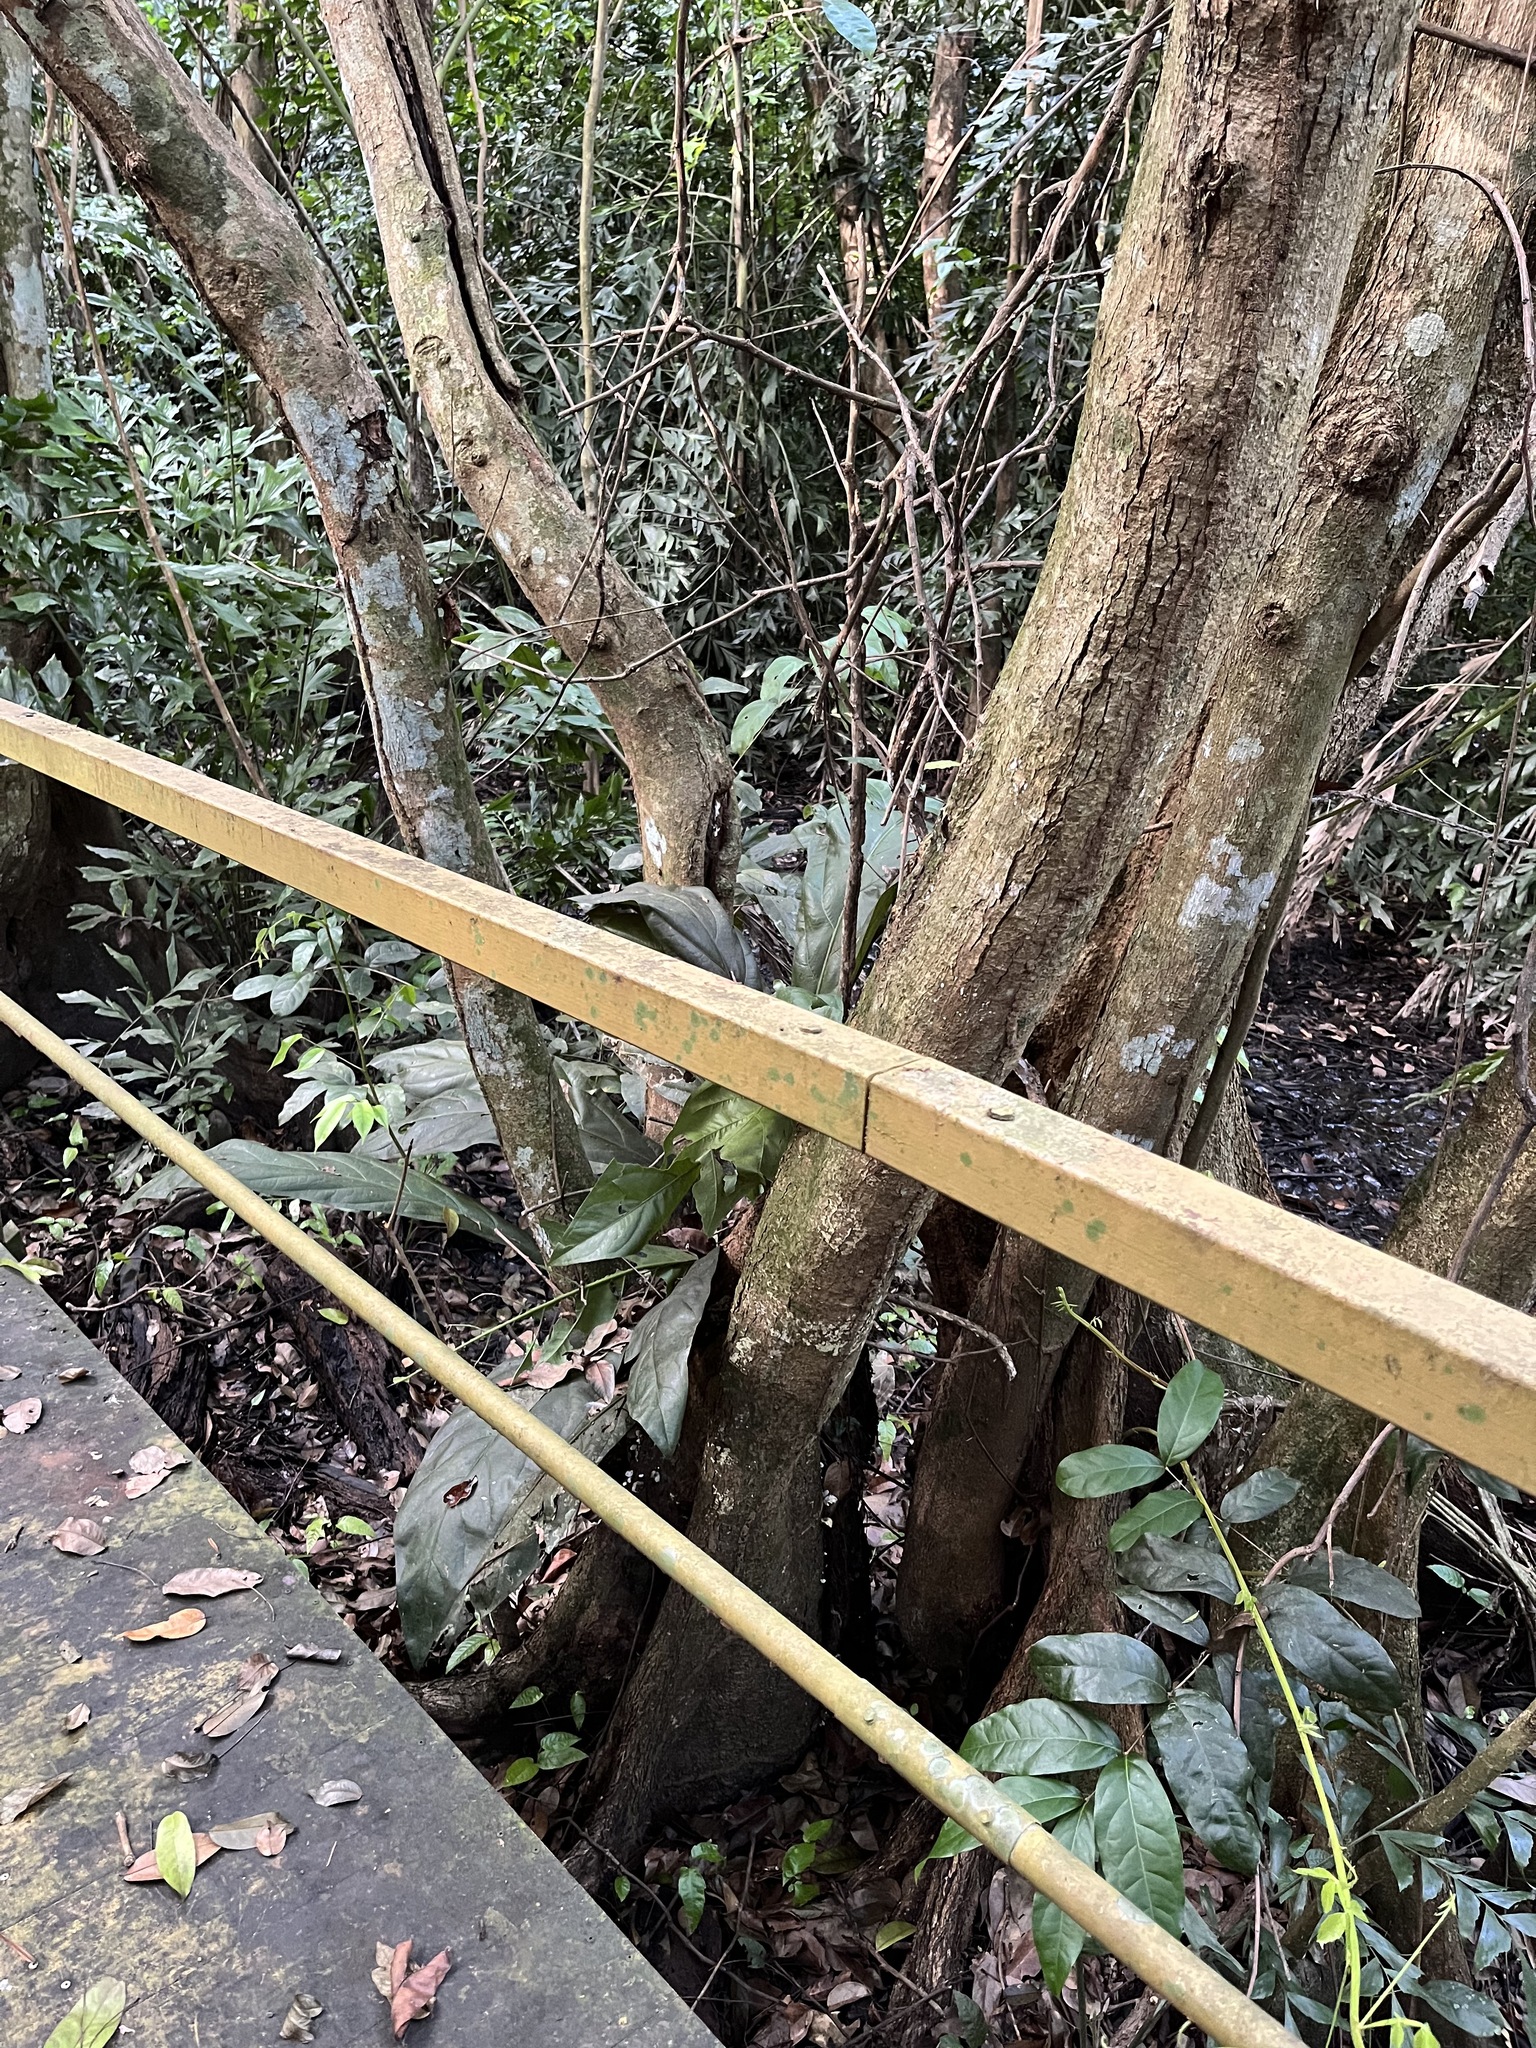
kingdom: Plantae
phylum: Tracheophyta
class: Magnoliopsida
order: Fabales
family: Fabaceae
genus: Pterocarpus
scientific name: Pterocarpus officinalis
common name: Bloodwood
